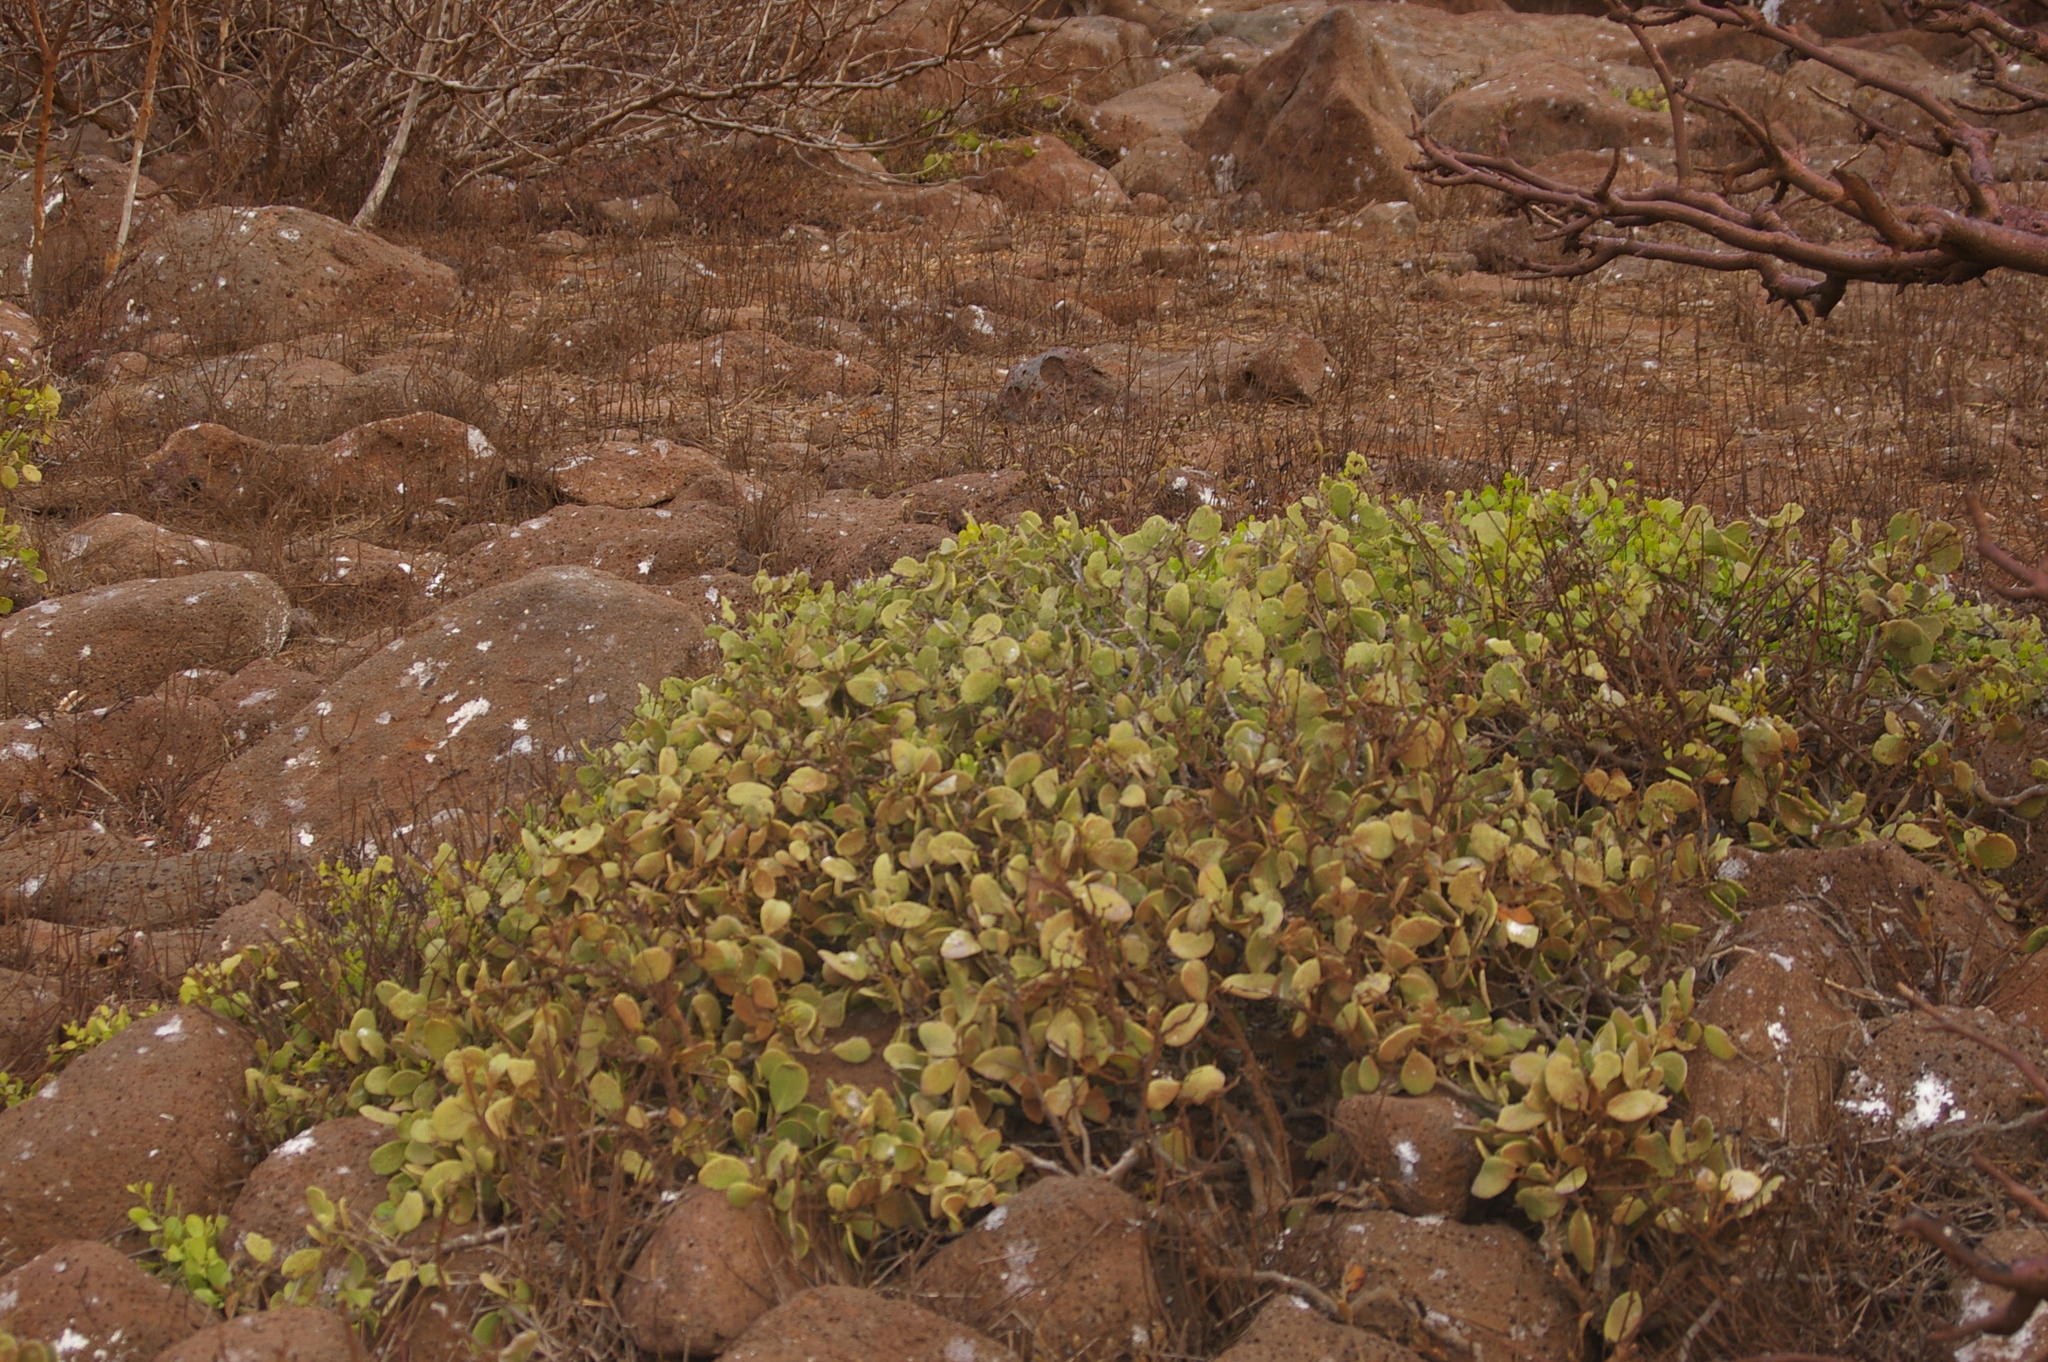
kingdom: Plantae
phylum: Tracheophyta
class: Magnoliopsida
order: Celastrales
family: Celastraceae
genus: Tricerma
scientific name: Tricerma octogonum
